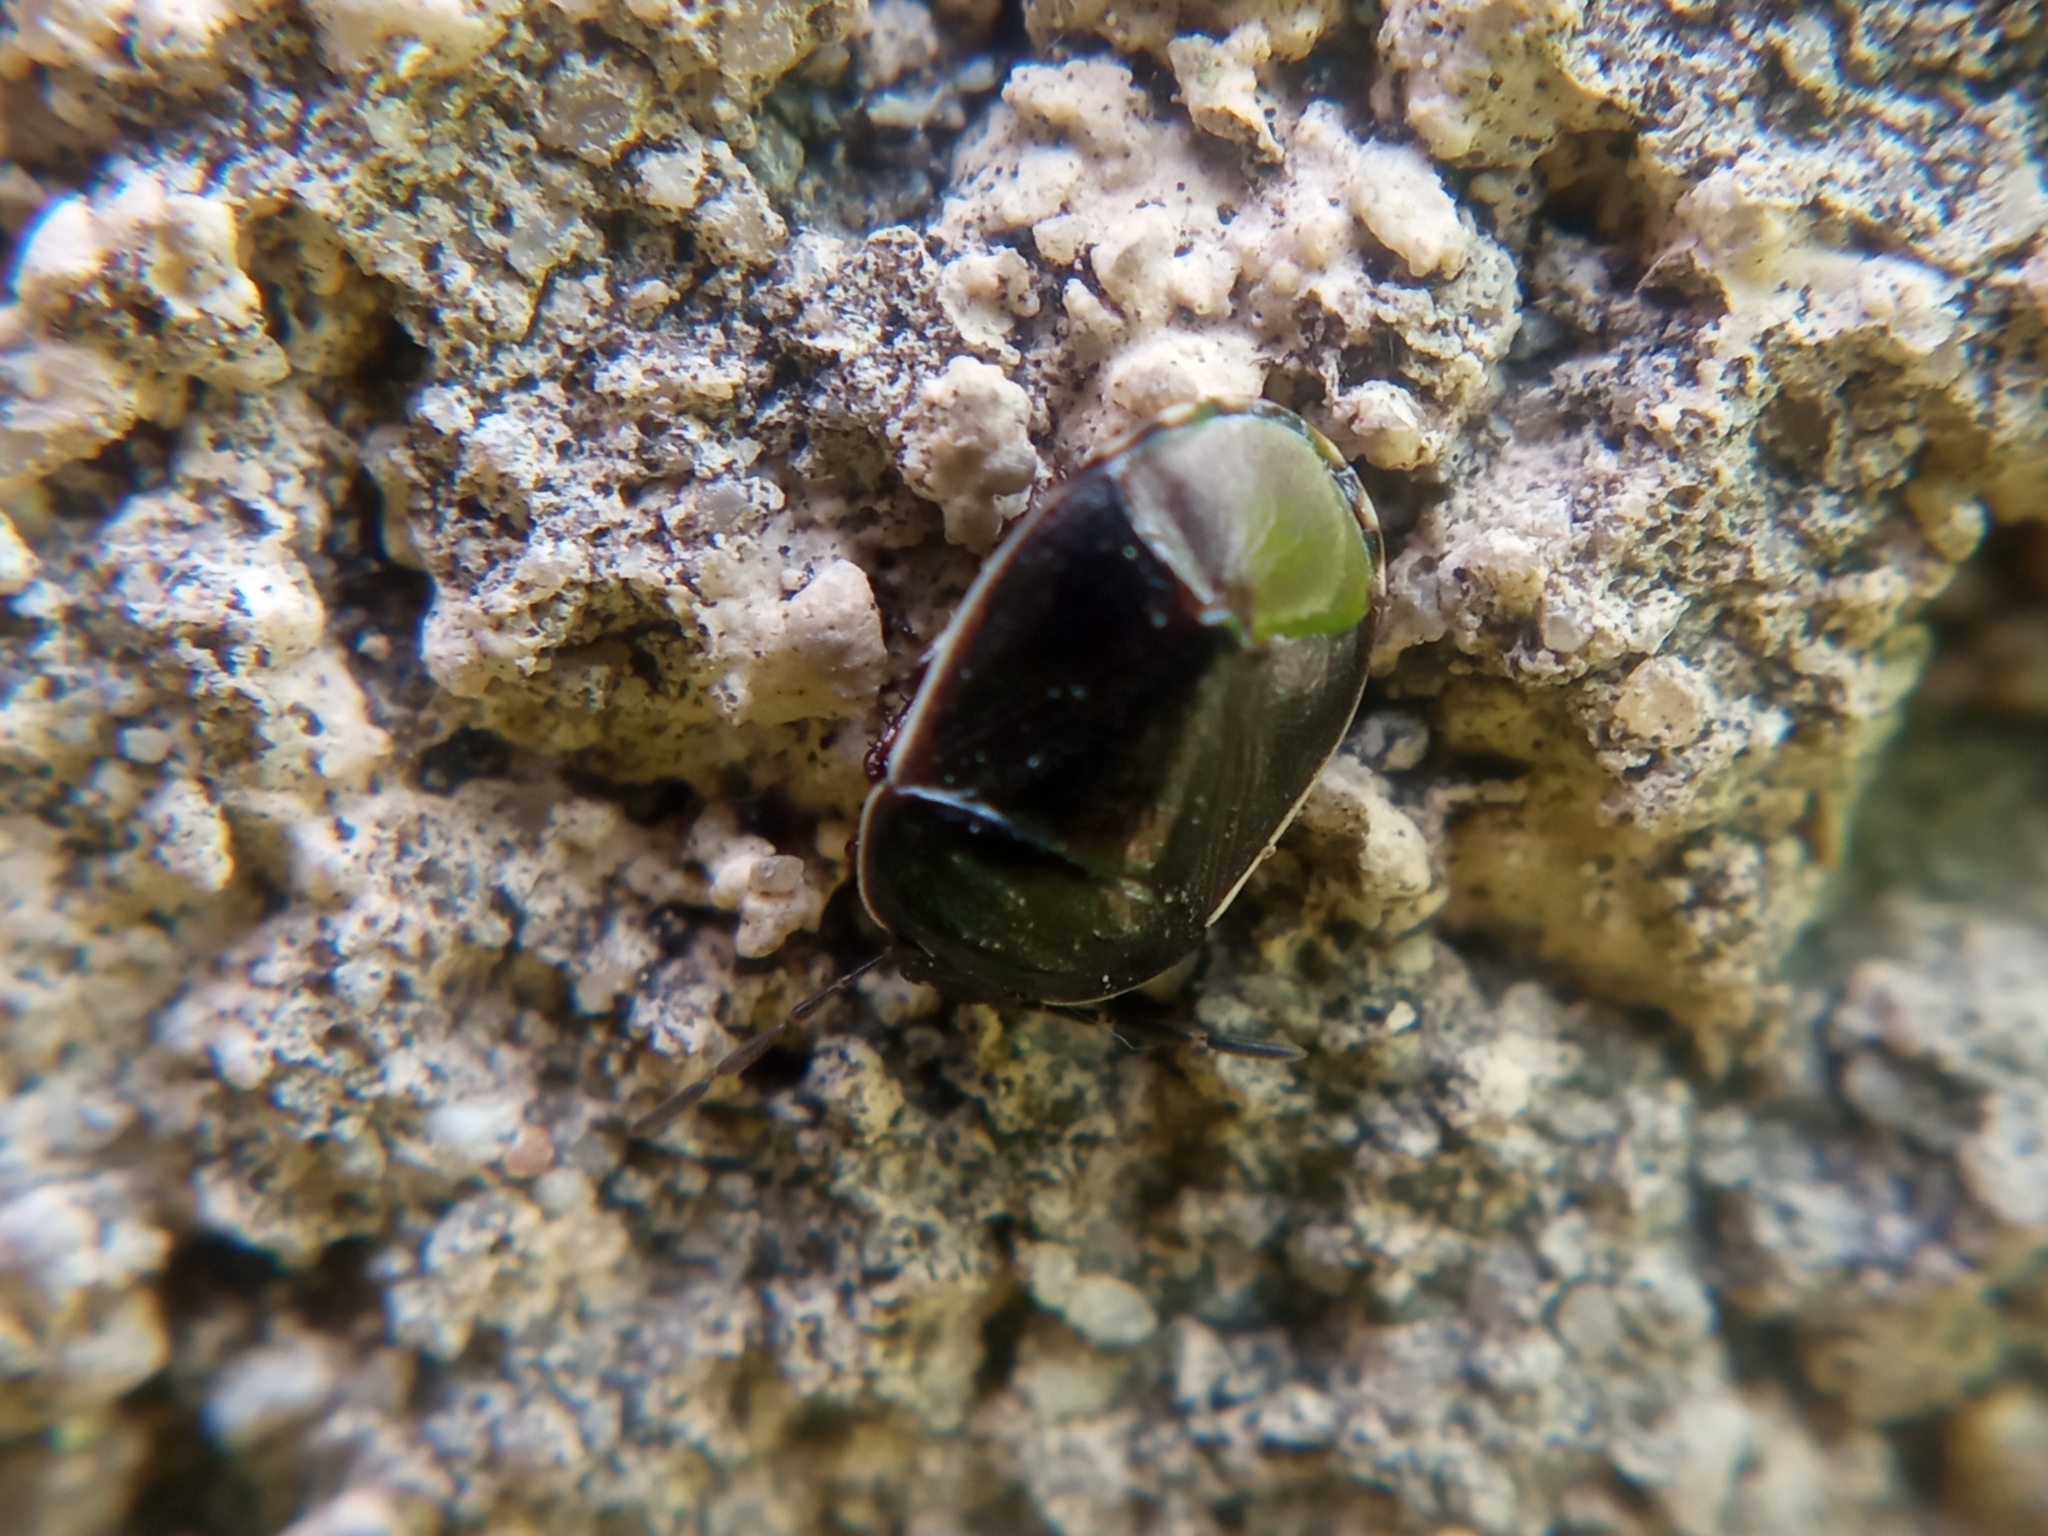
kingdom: Animalia
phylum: Arthropoda
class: Insecta
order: Hemiptera
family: Cydnidae
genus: Adomerus
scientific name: Adomerus fuscipennis
